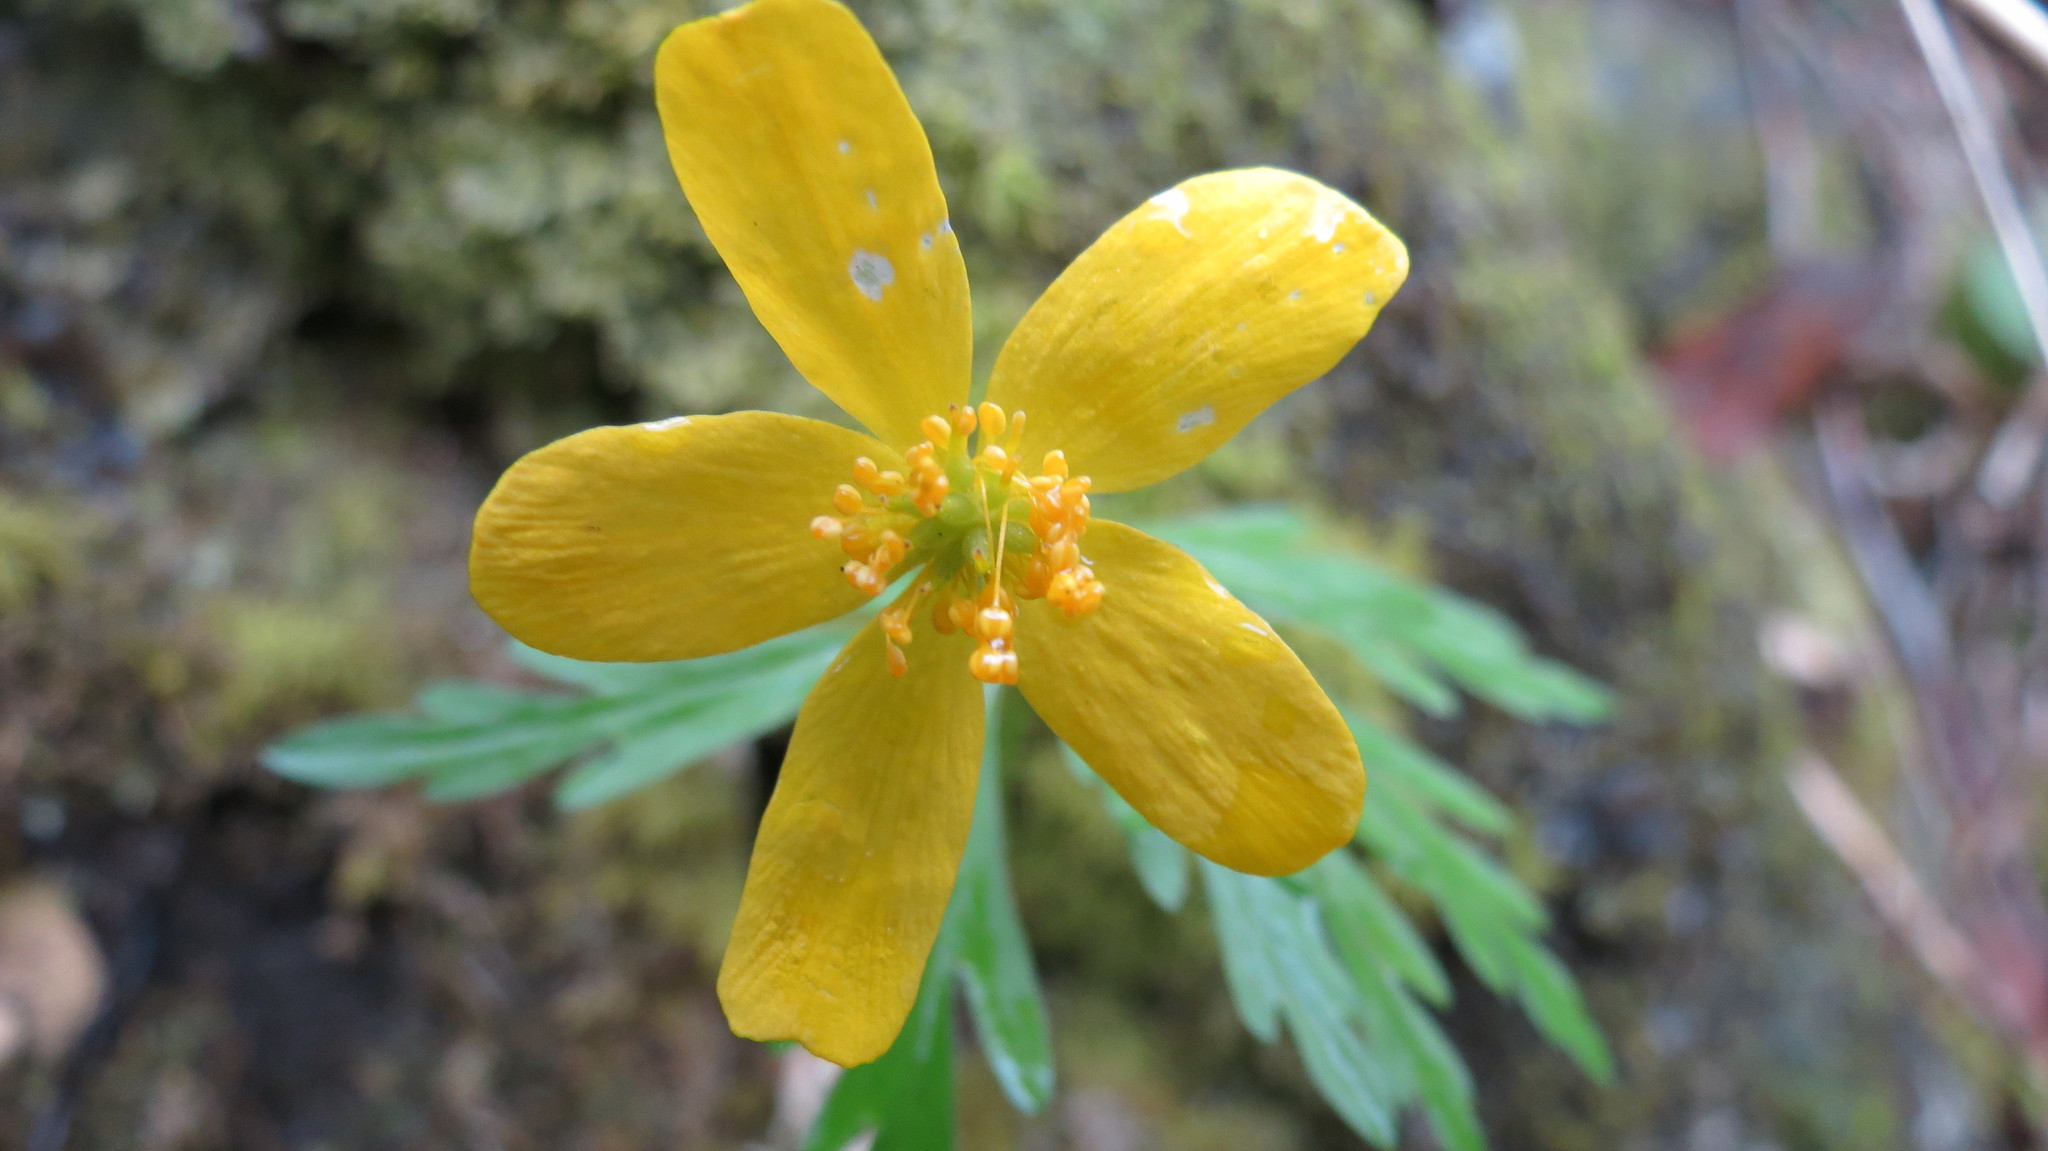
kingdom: Plantae
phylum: Tracheophyta
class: Magnoliopsida
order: Ranunculales
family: Ranunculaceae
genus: Anemone
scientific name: Anemone ranunculoides
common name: Yellow anemone
